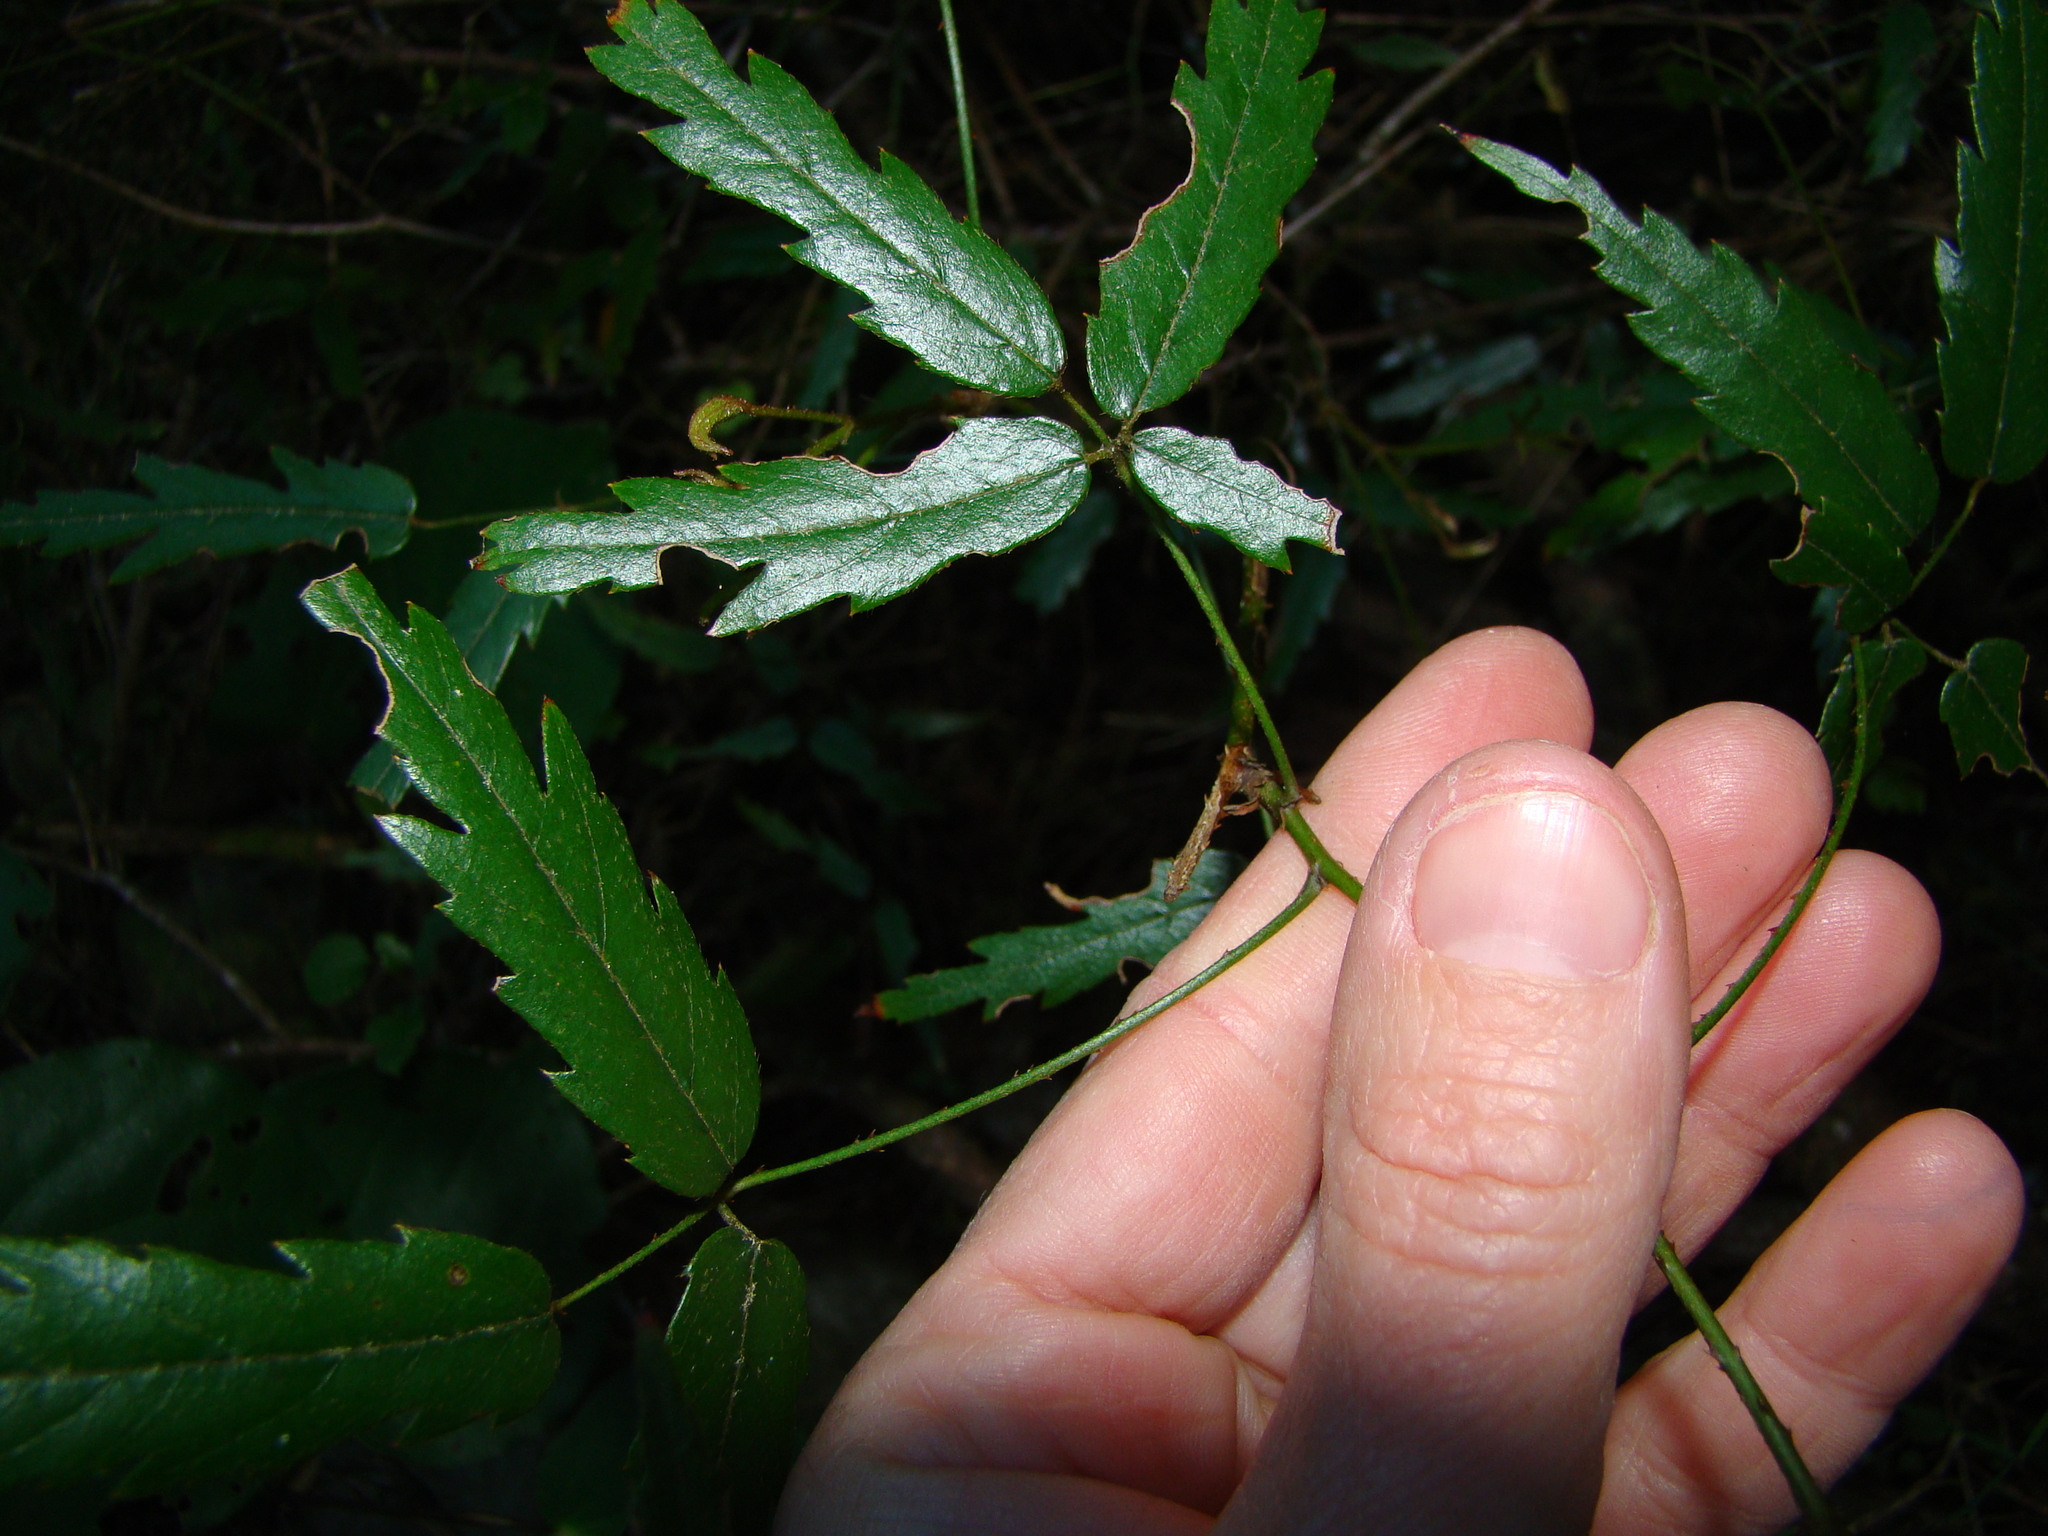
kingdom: Plantae
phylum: Tracheophyta
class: Magnoliopsida
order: Rosales
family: Rosaceae
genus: Rubus
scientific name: Rubus schmidelioides
